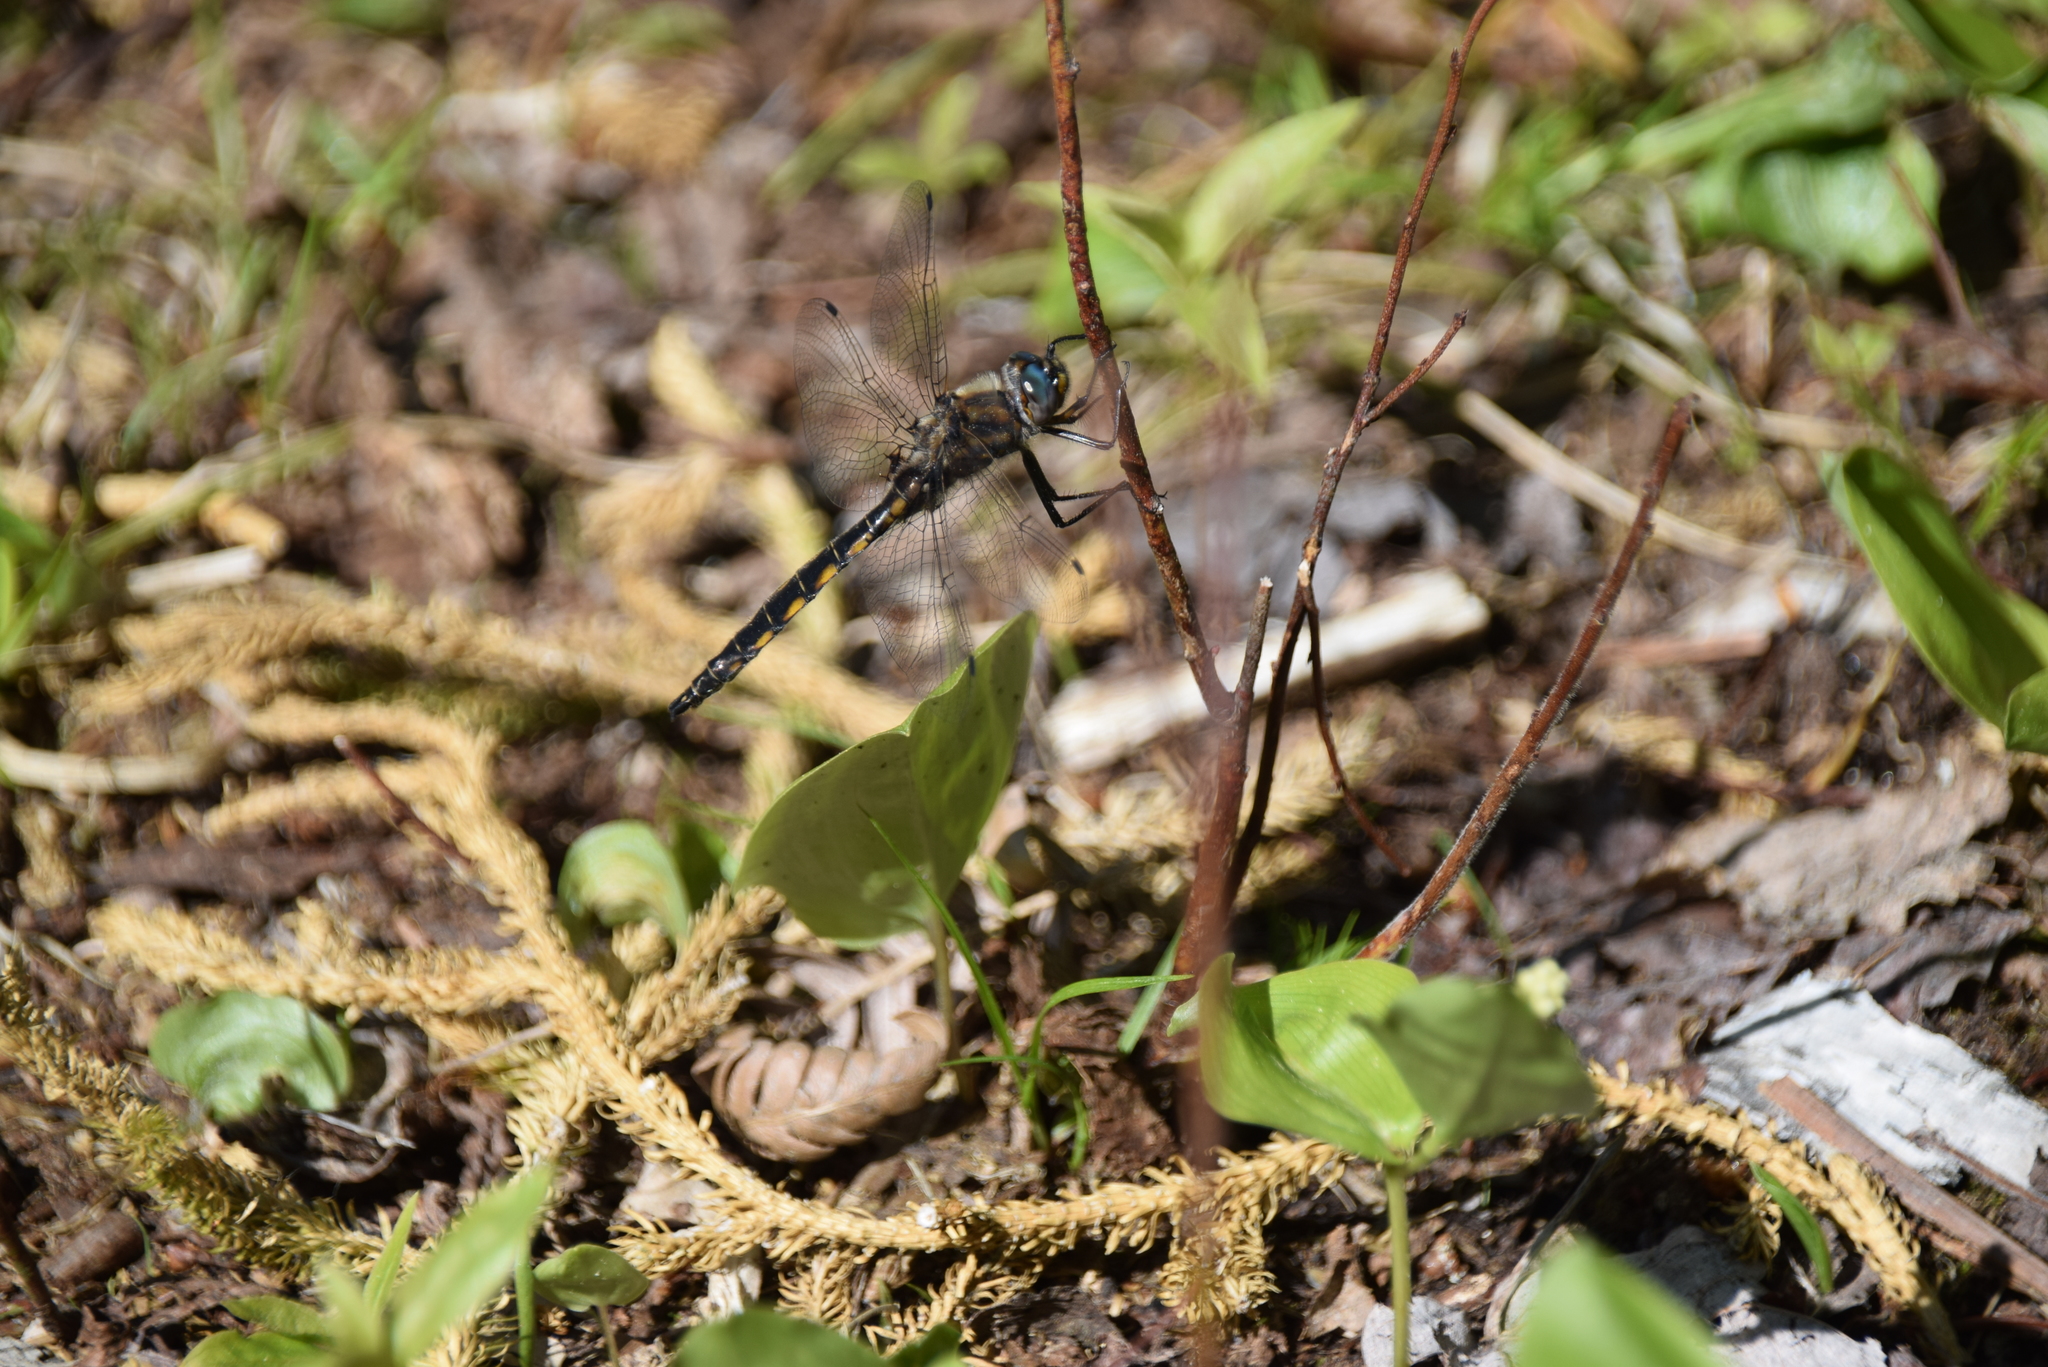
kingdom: Animalia
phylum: Arthropoda
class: Insecta
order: Odonata
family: Corduliidae
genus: Epitheca
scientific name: Epitheca canis
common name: Beaverpond baskettail
